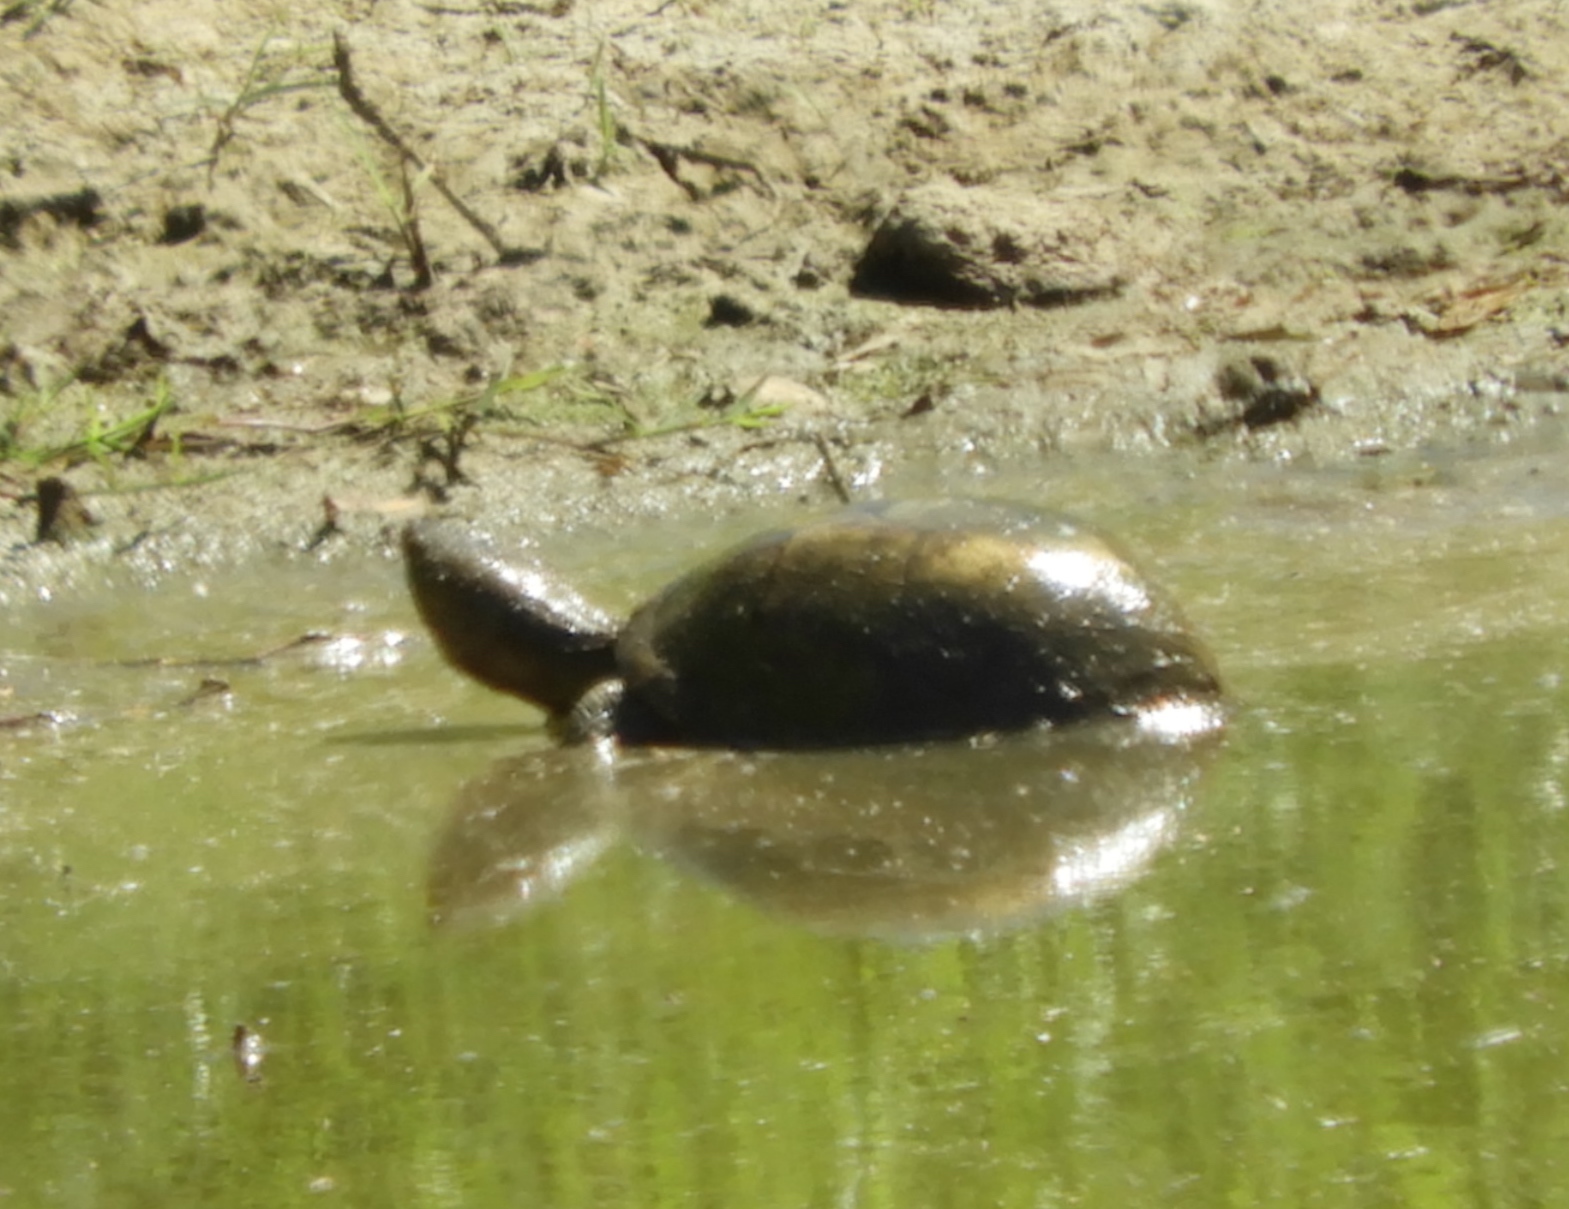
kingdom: Animalia
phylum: Chordata
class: Testudines
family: Kinosternidae
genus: Kinosternon
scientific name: Kinosternon integrum
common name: Mexican mud turtle
